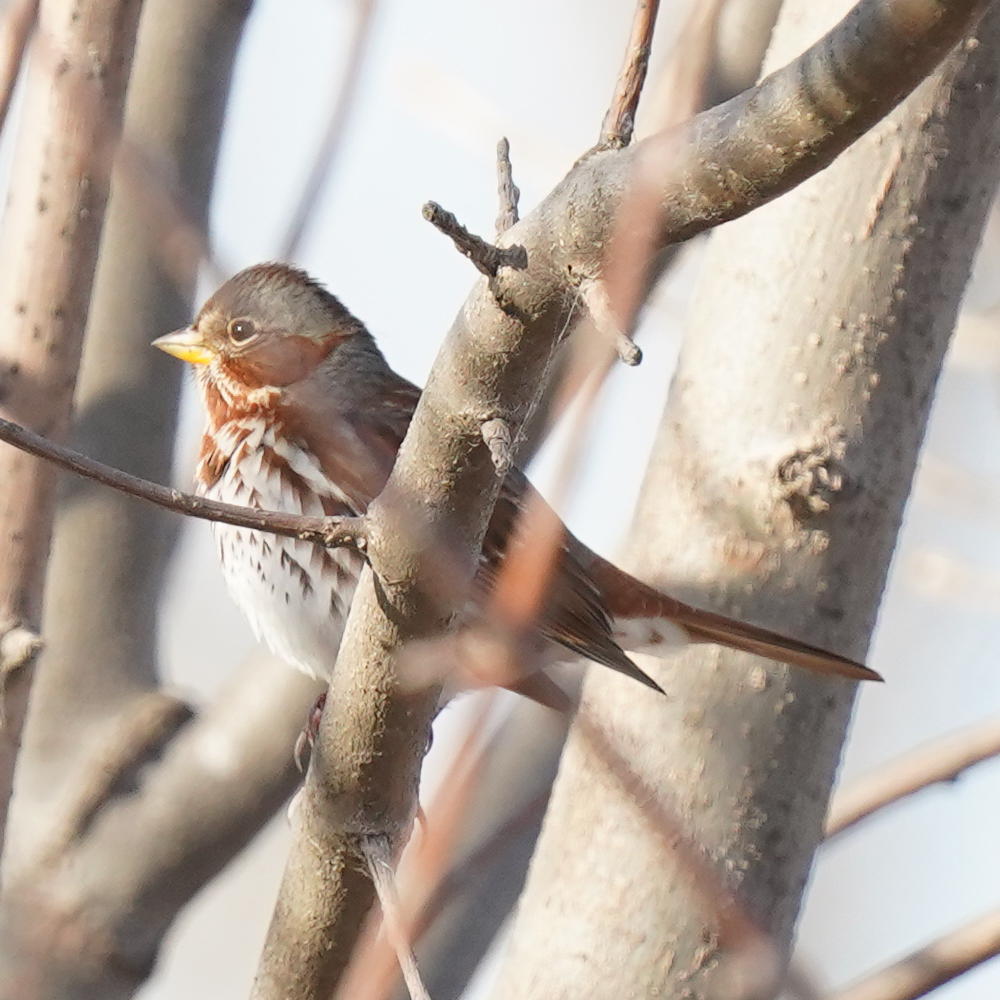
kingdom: Animalia
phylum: Chordata
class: Aves
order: Passeriformes
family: Passerellidae
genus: Passerella
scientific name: Passerella iliaca
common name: Fox sparrow
